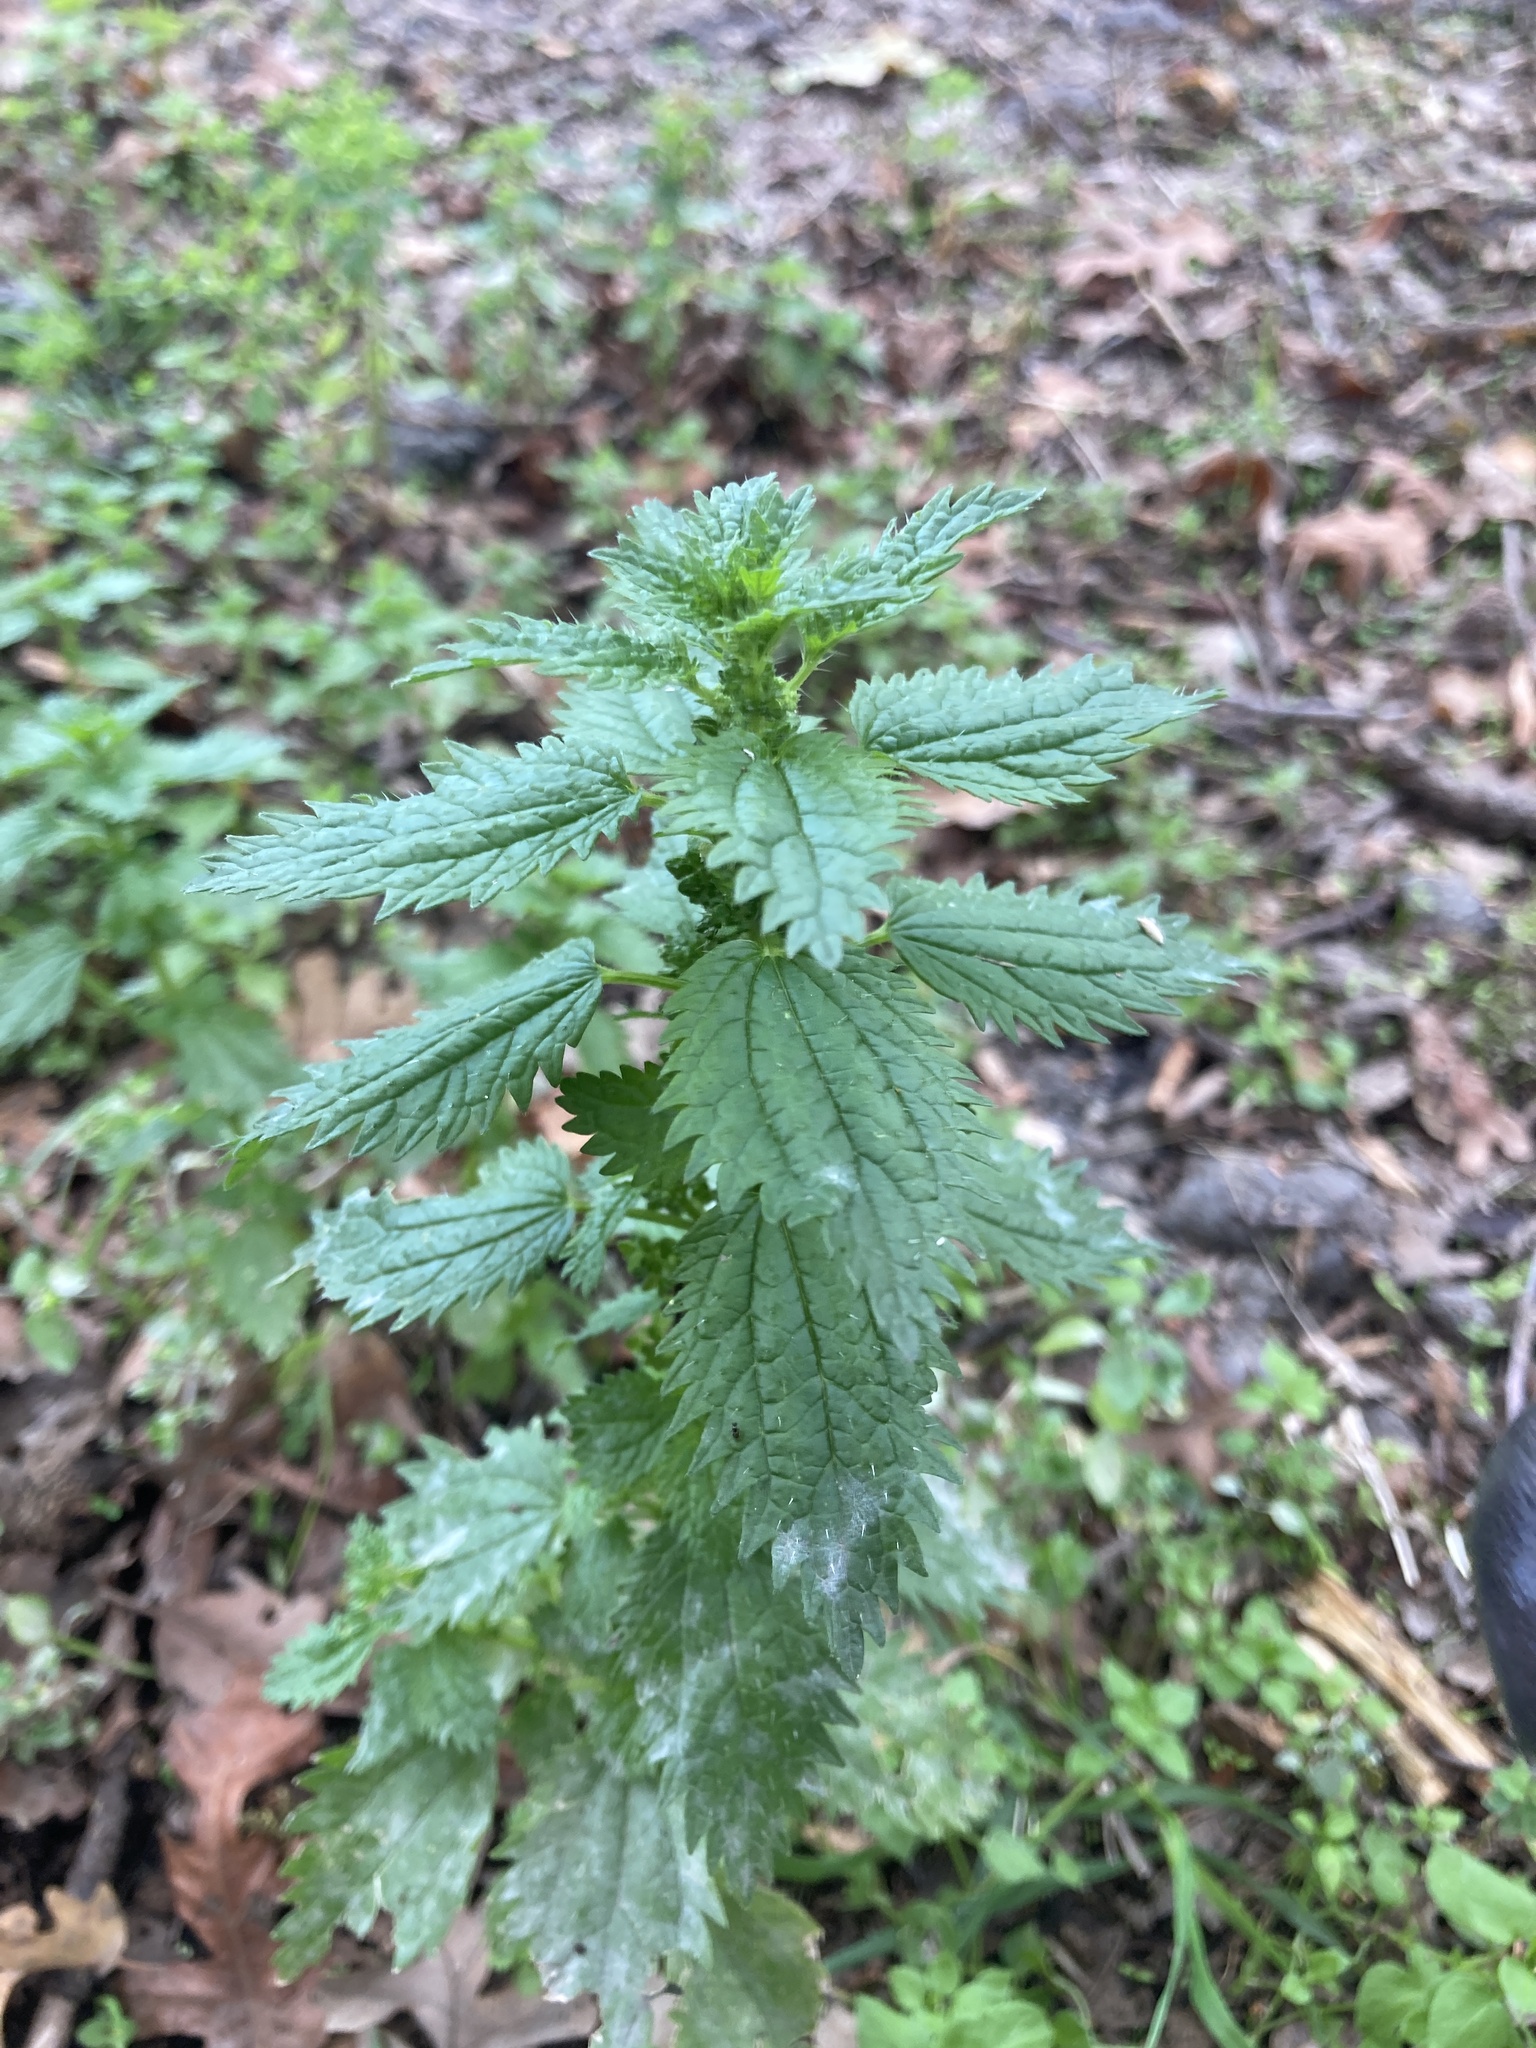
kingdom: Plantae
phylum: Tracheophyta
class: Magnoliopsida
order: Rosales
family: Urticaceae
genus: Urtica
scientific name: Urtica urens
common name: Dwarf nettle
